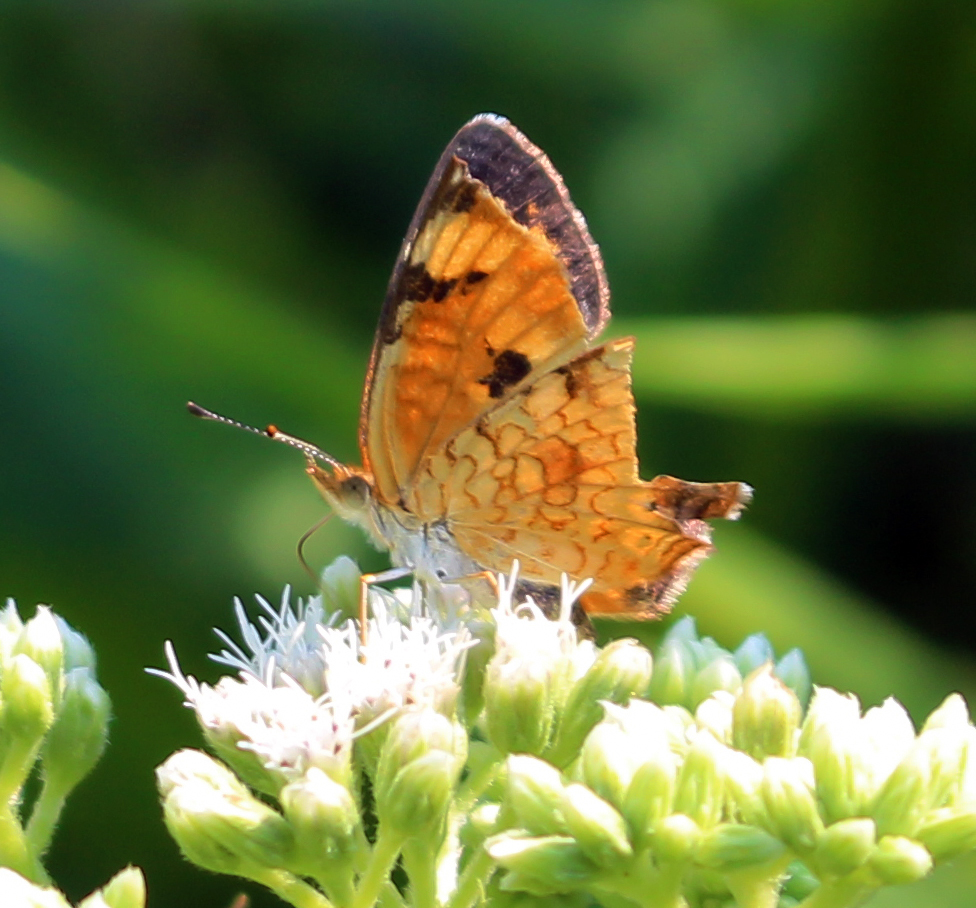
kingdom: Animalia
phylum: Arthropoda
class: Insecta
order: Lepidoptera
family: Nymphalidae
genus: Phyciodes
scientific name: Phyciodes tharos
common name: Pearl crescent
